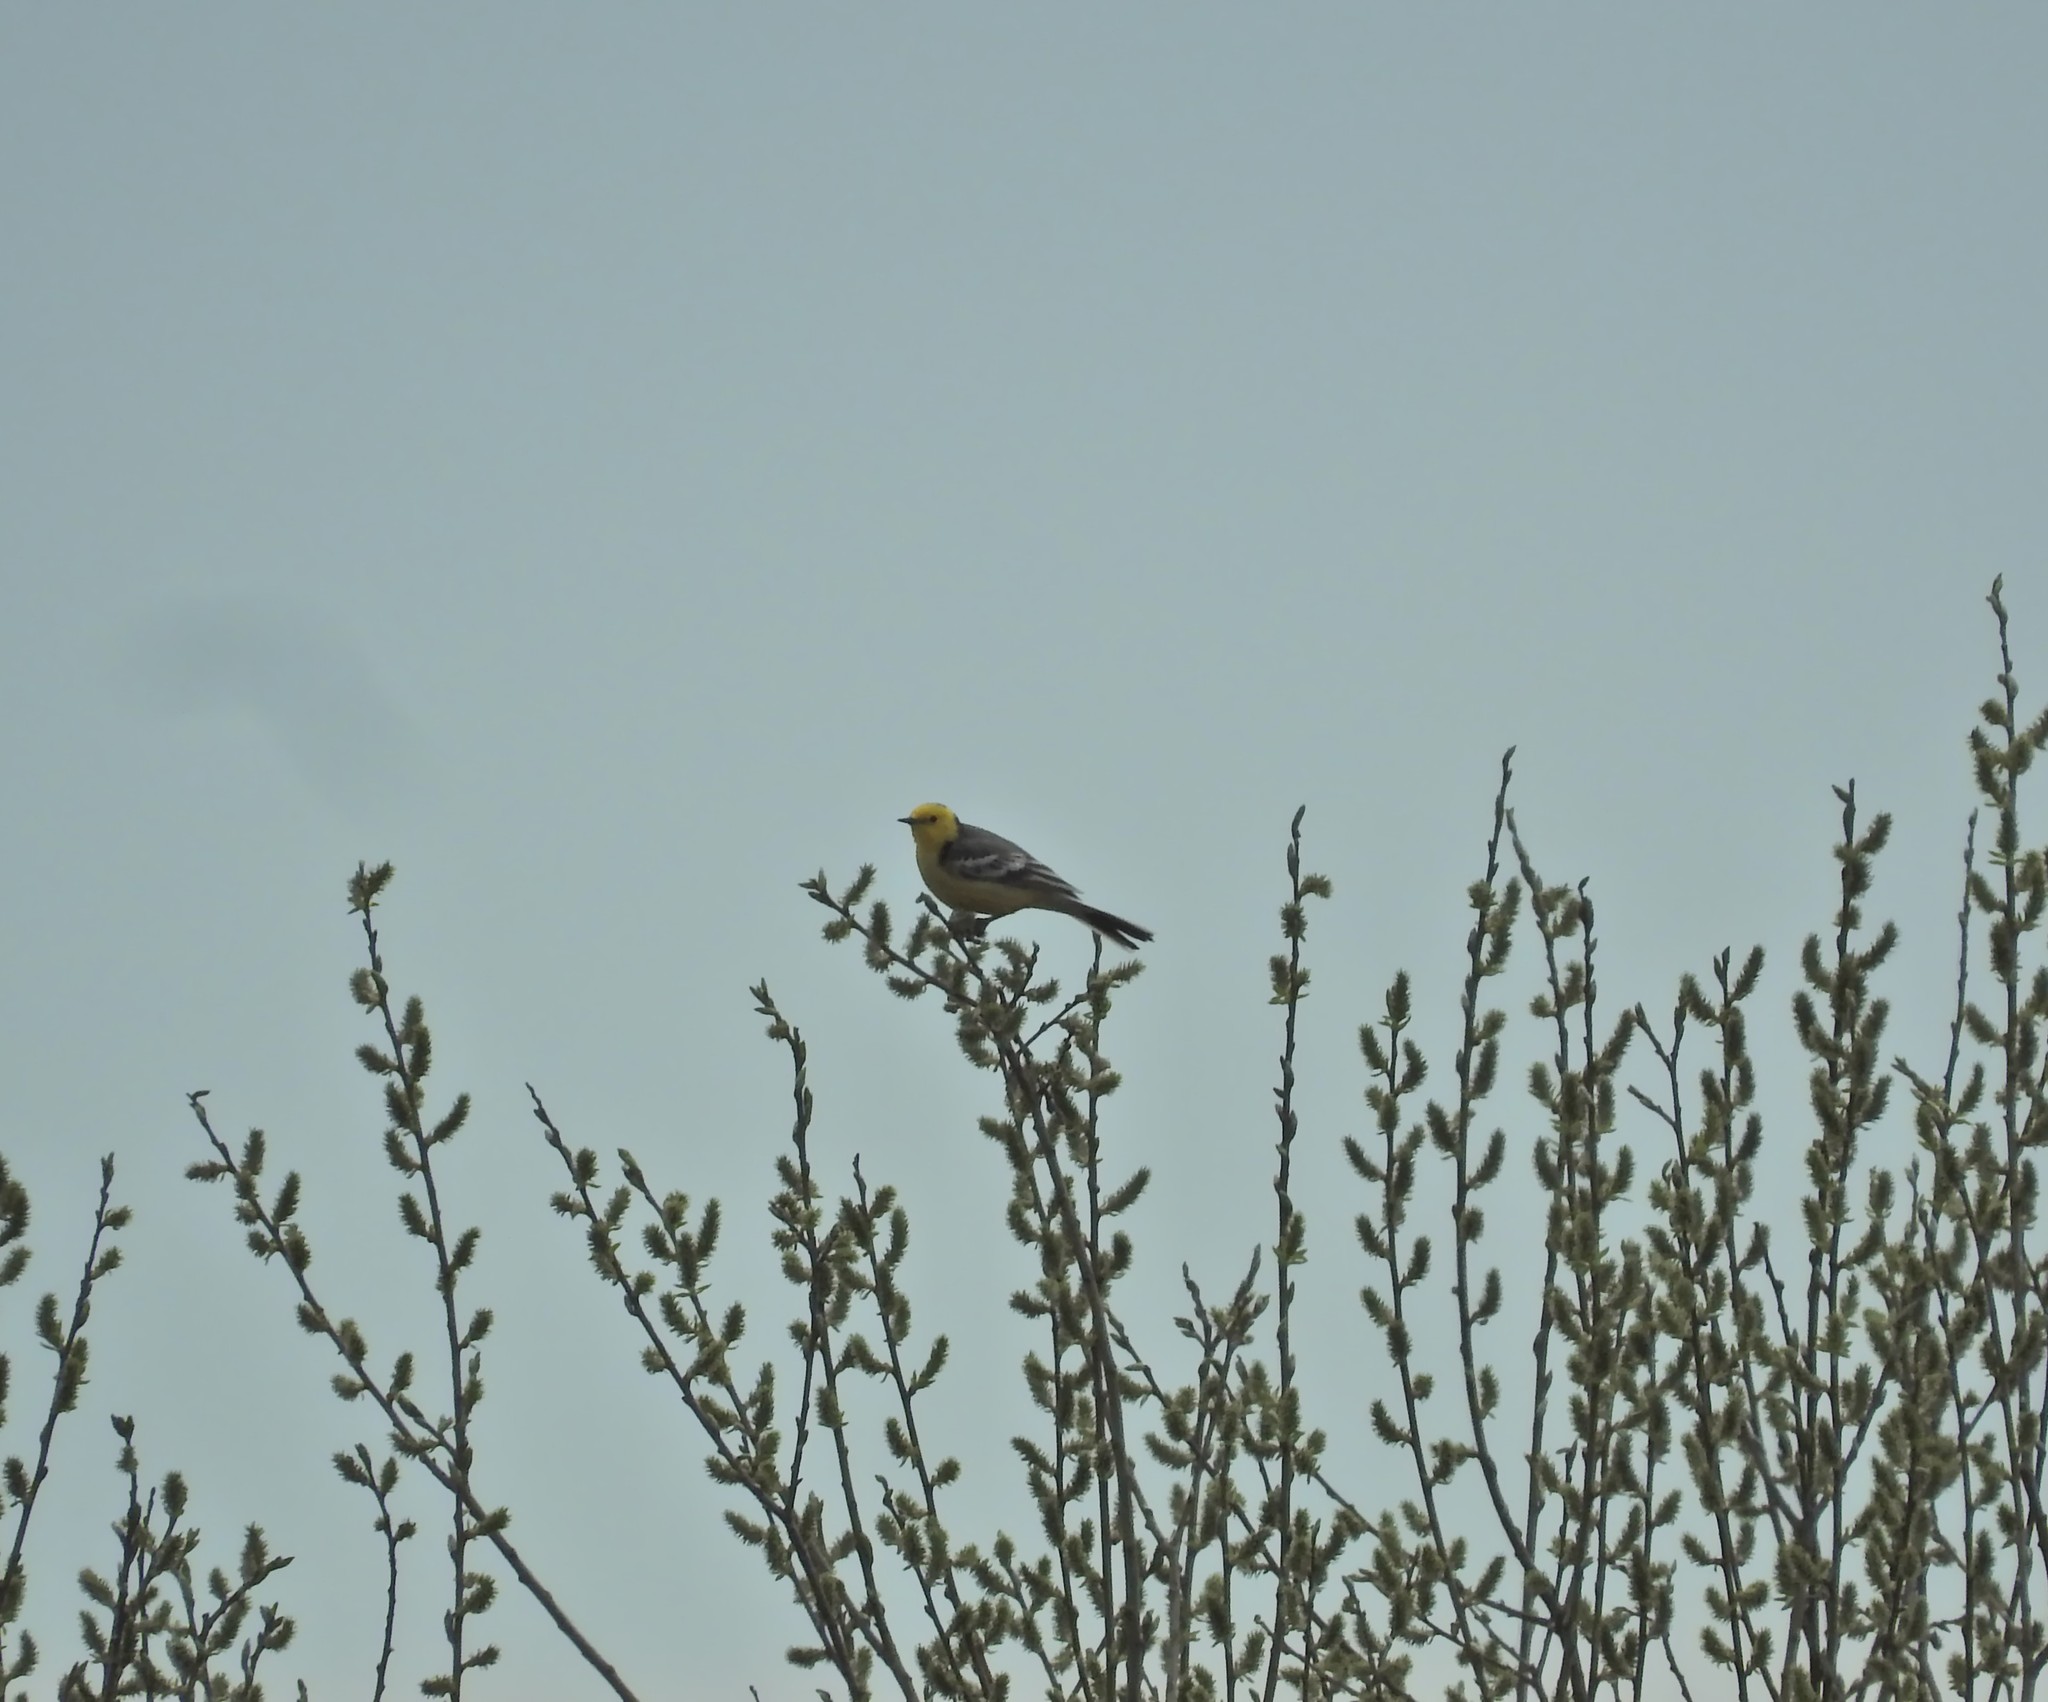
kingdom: Animalia
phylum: Chordata
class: Aves
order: Passeriformes
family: Motacillidae
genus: Motacilla
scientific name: Motacilla citreola
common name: Citrine wagtail
